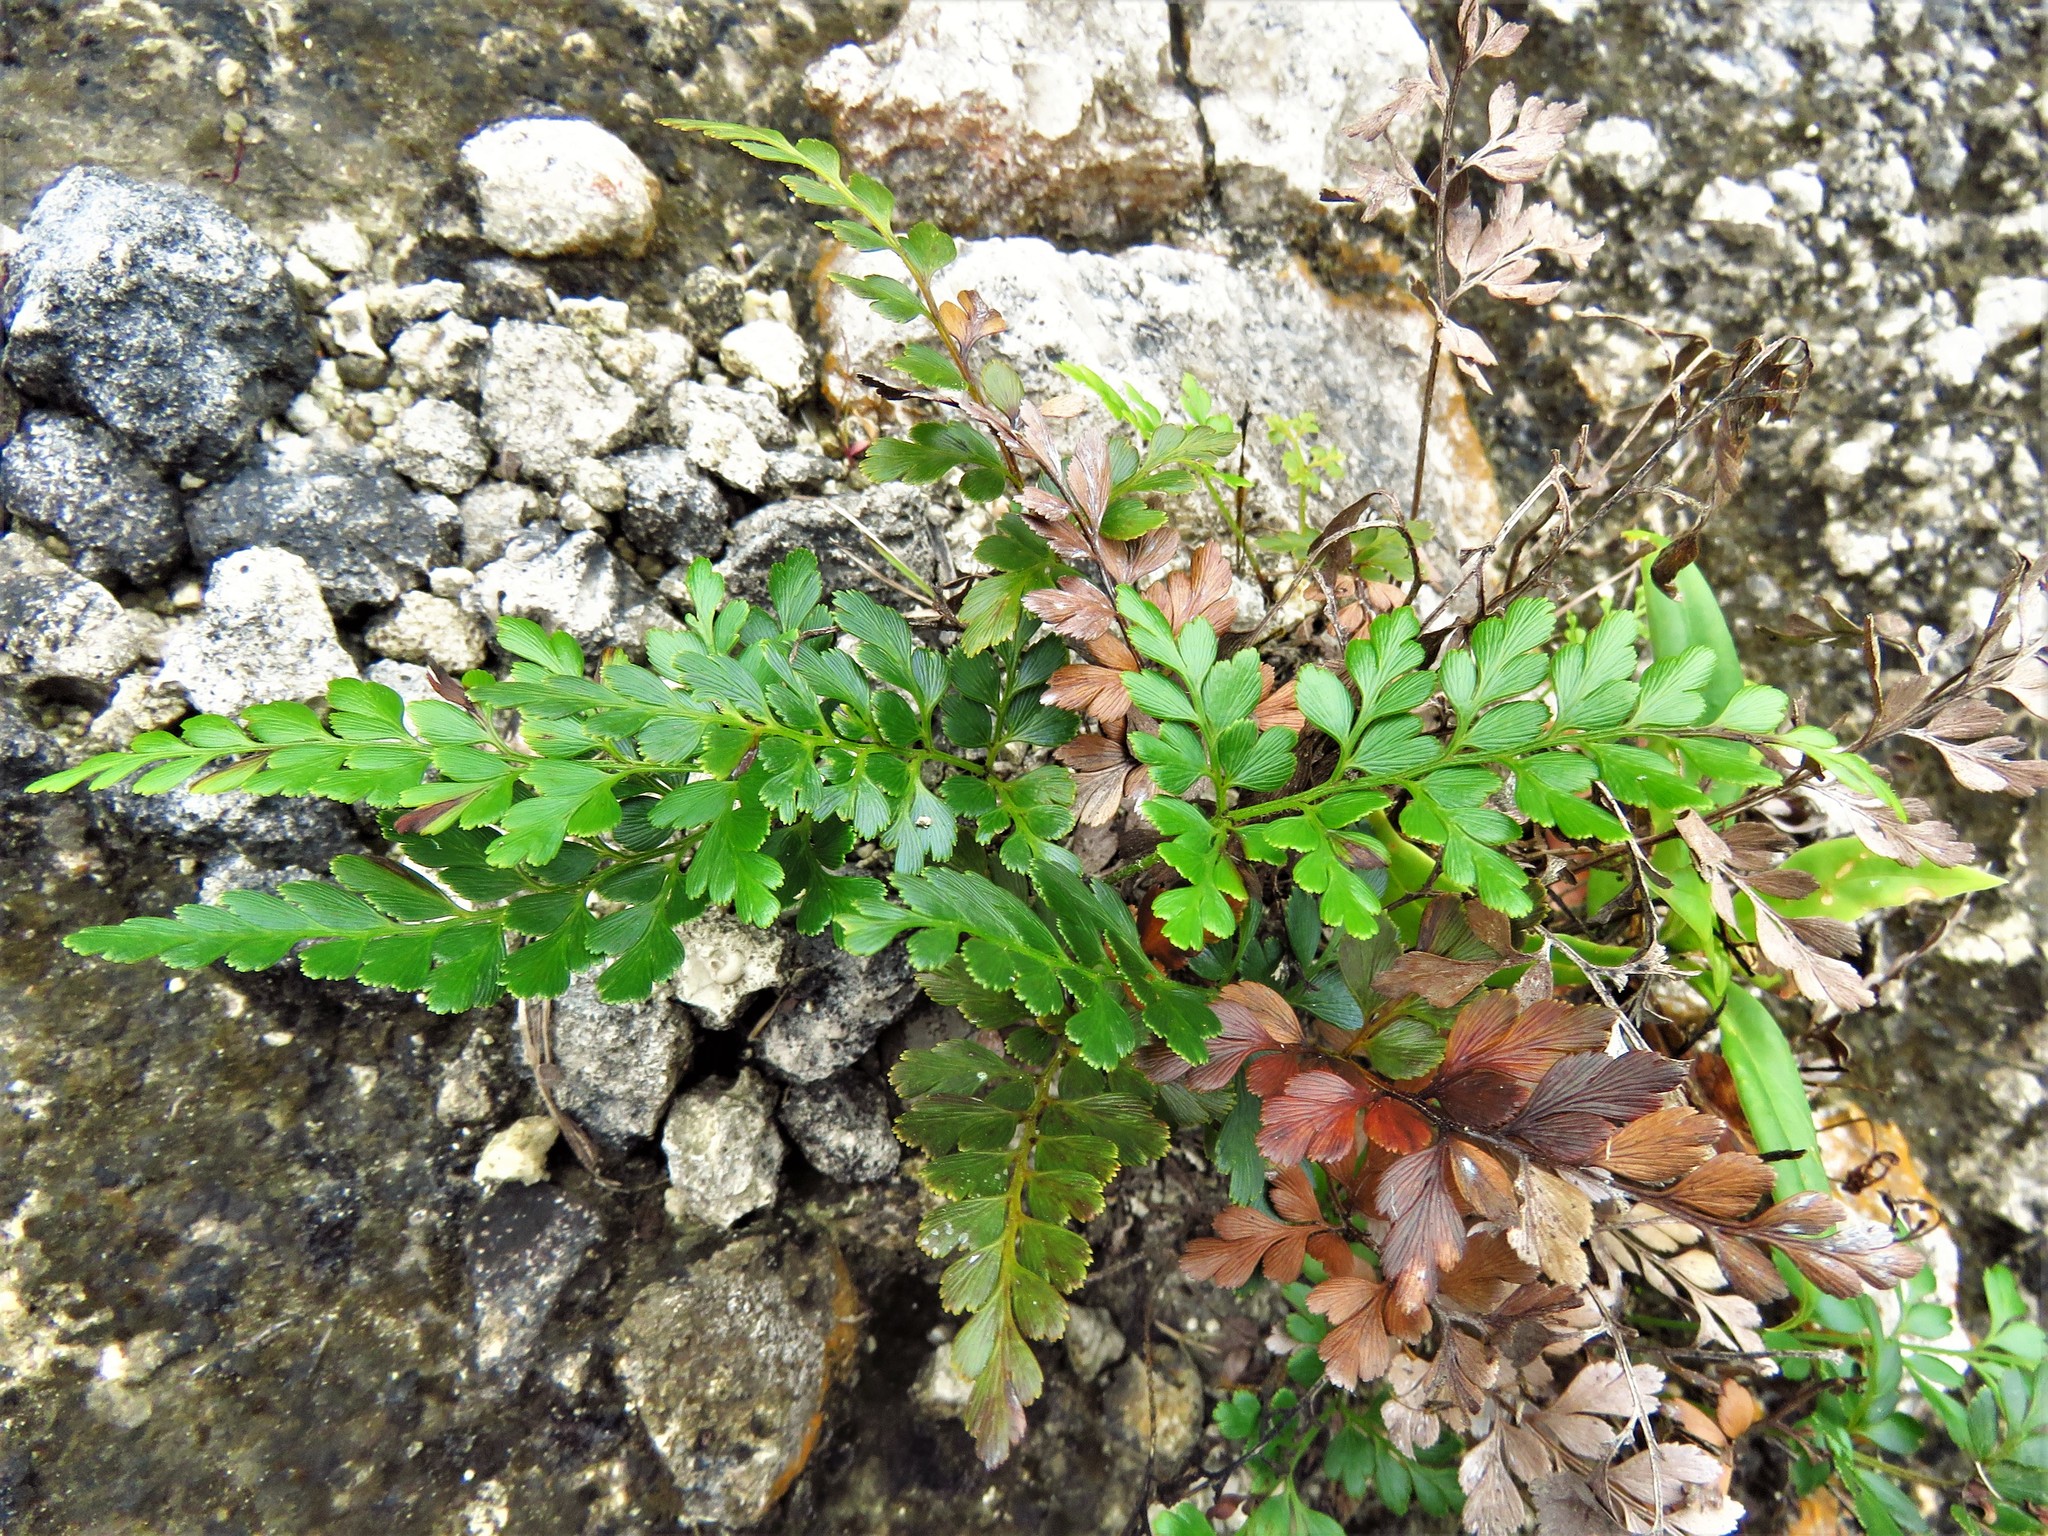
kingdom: Plantae
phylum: Tracheophyta
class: Polypodiopsida
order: Schizaeales
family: Anemiaceae
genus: Anemia
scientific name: Anemia adiantifolia
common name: Pine fern
